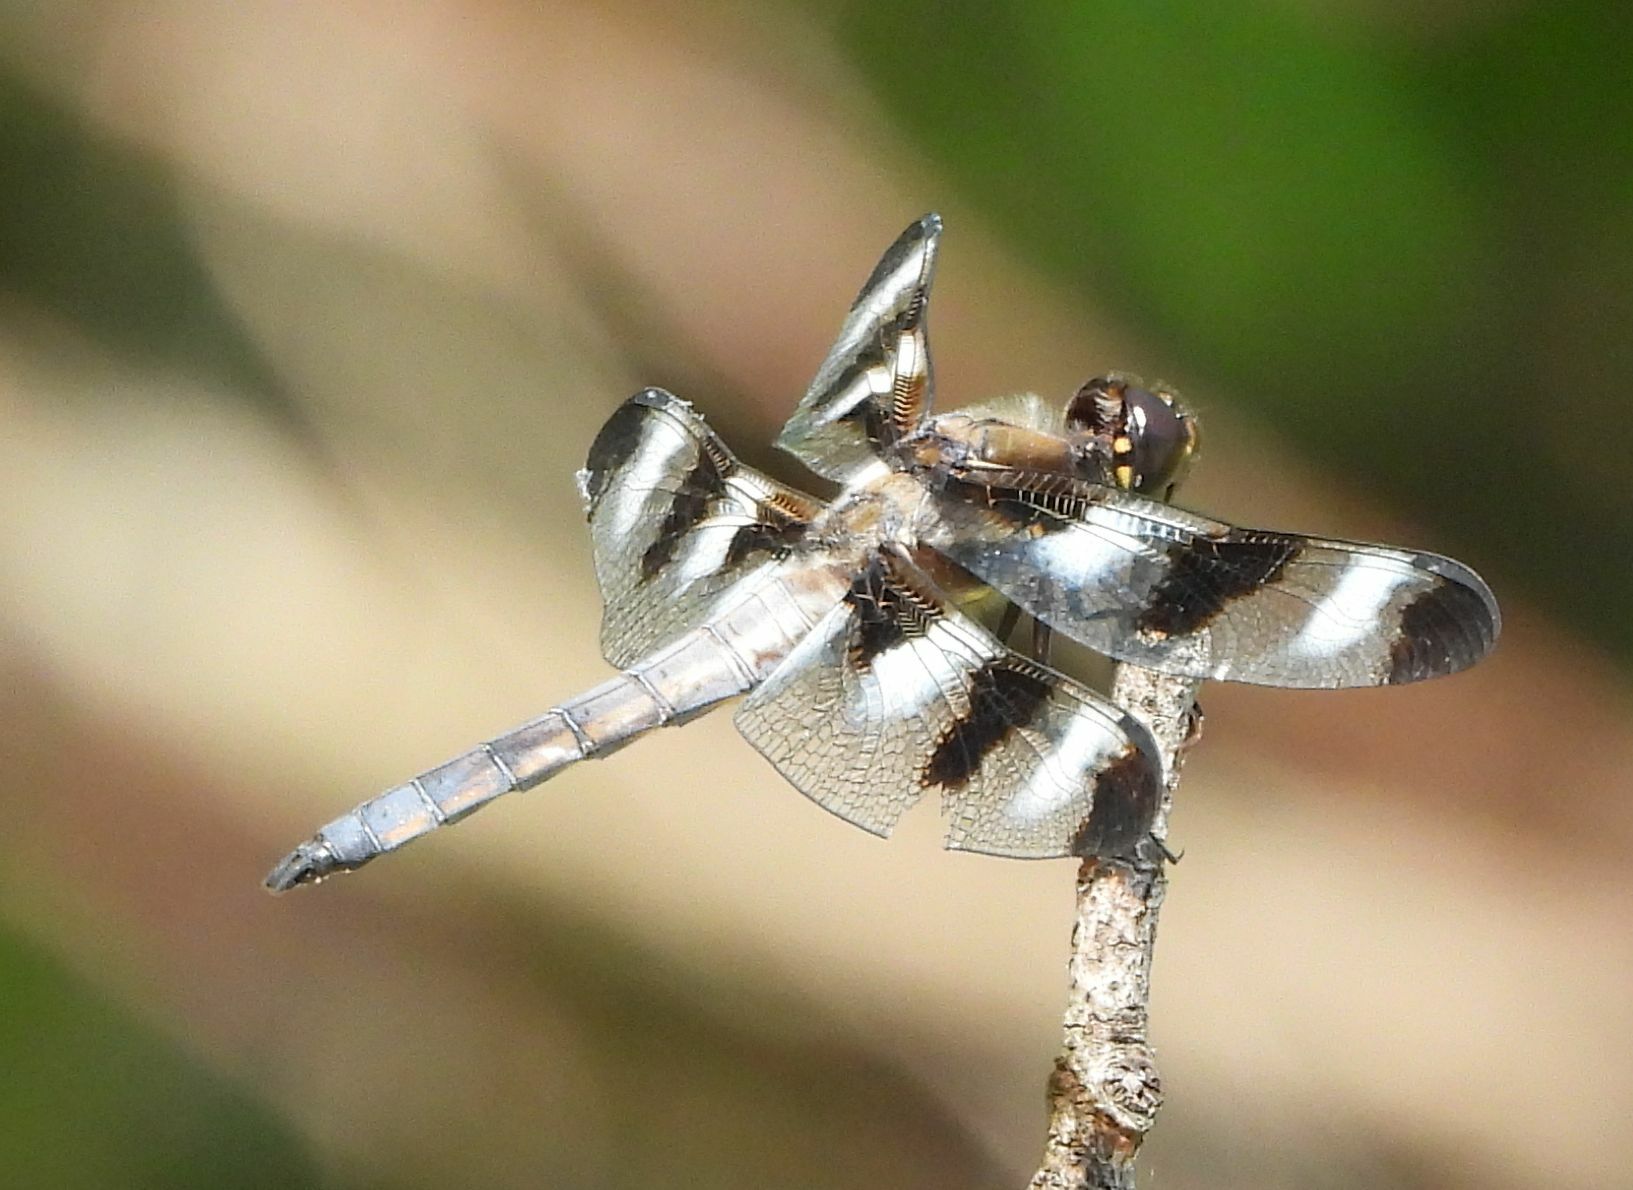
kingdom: Animalia
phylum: Arthropoda
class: Insecta
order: Odonata
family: Libellulidae
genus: Libellula
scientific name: Libellula pulchella
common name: Twelve-spotted skimmer
